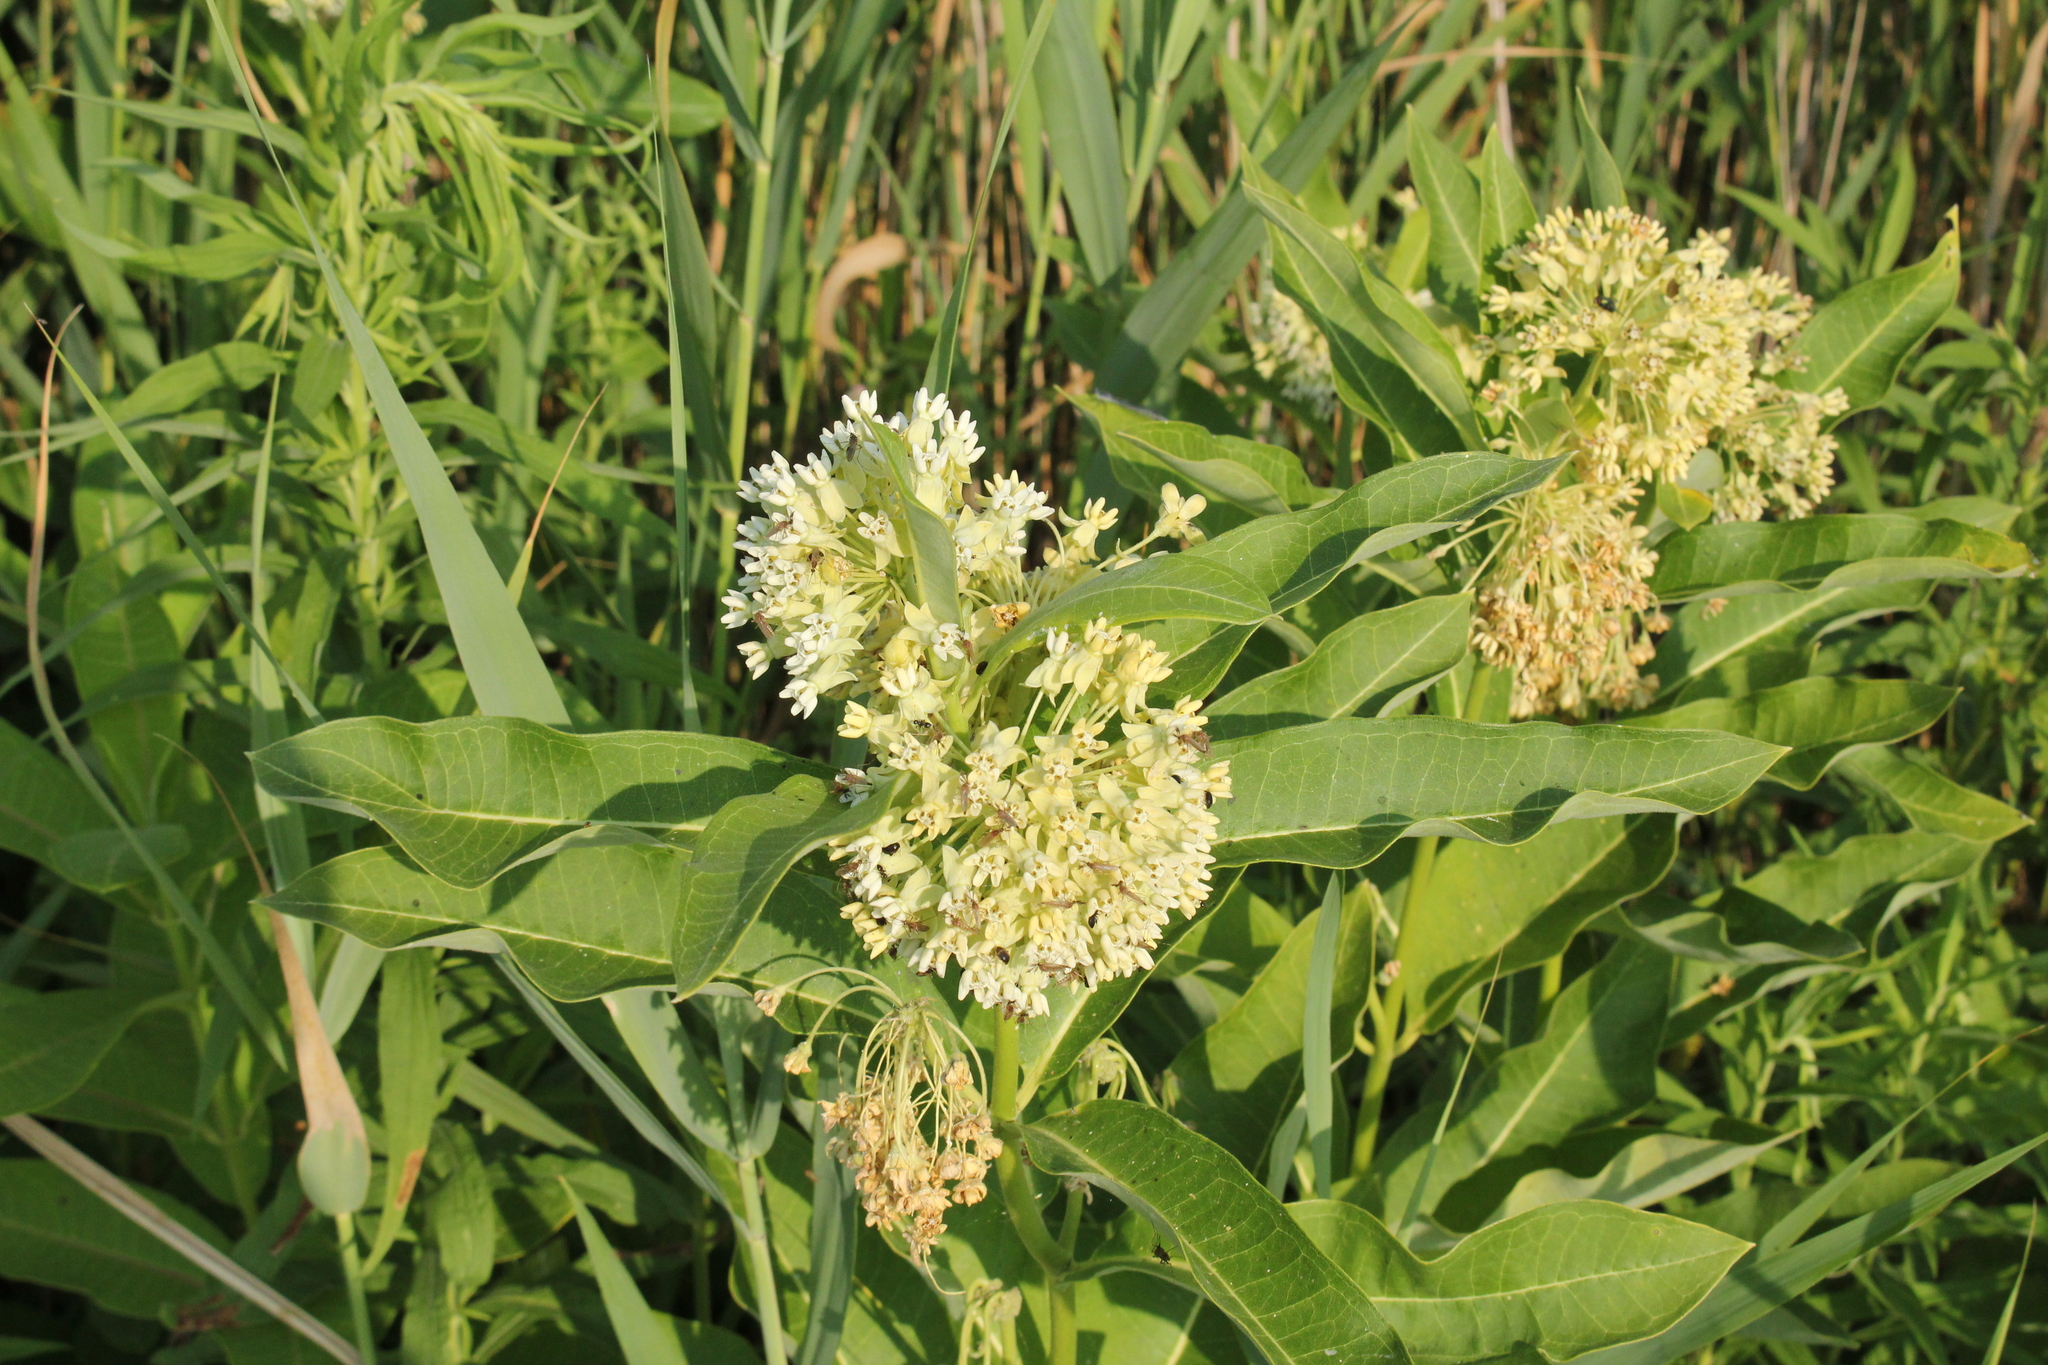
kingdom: Plantae
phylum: Tracheophyta
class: Magnoliopsida
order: Gentianales
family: Apocynaceae
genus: Asclepias
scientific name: Asclepias syriaca
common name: Common milkweed
